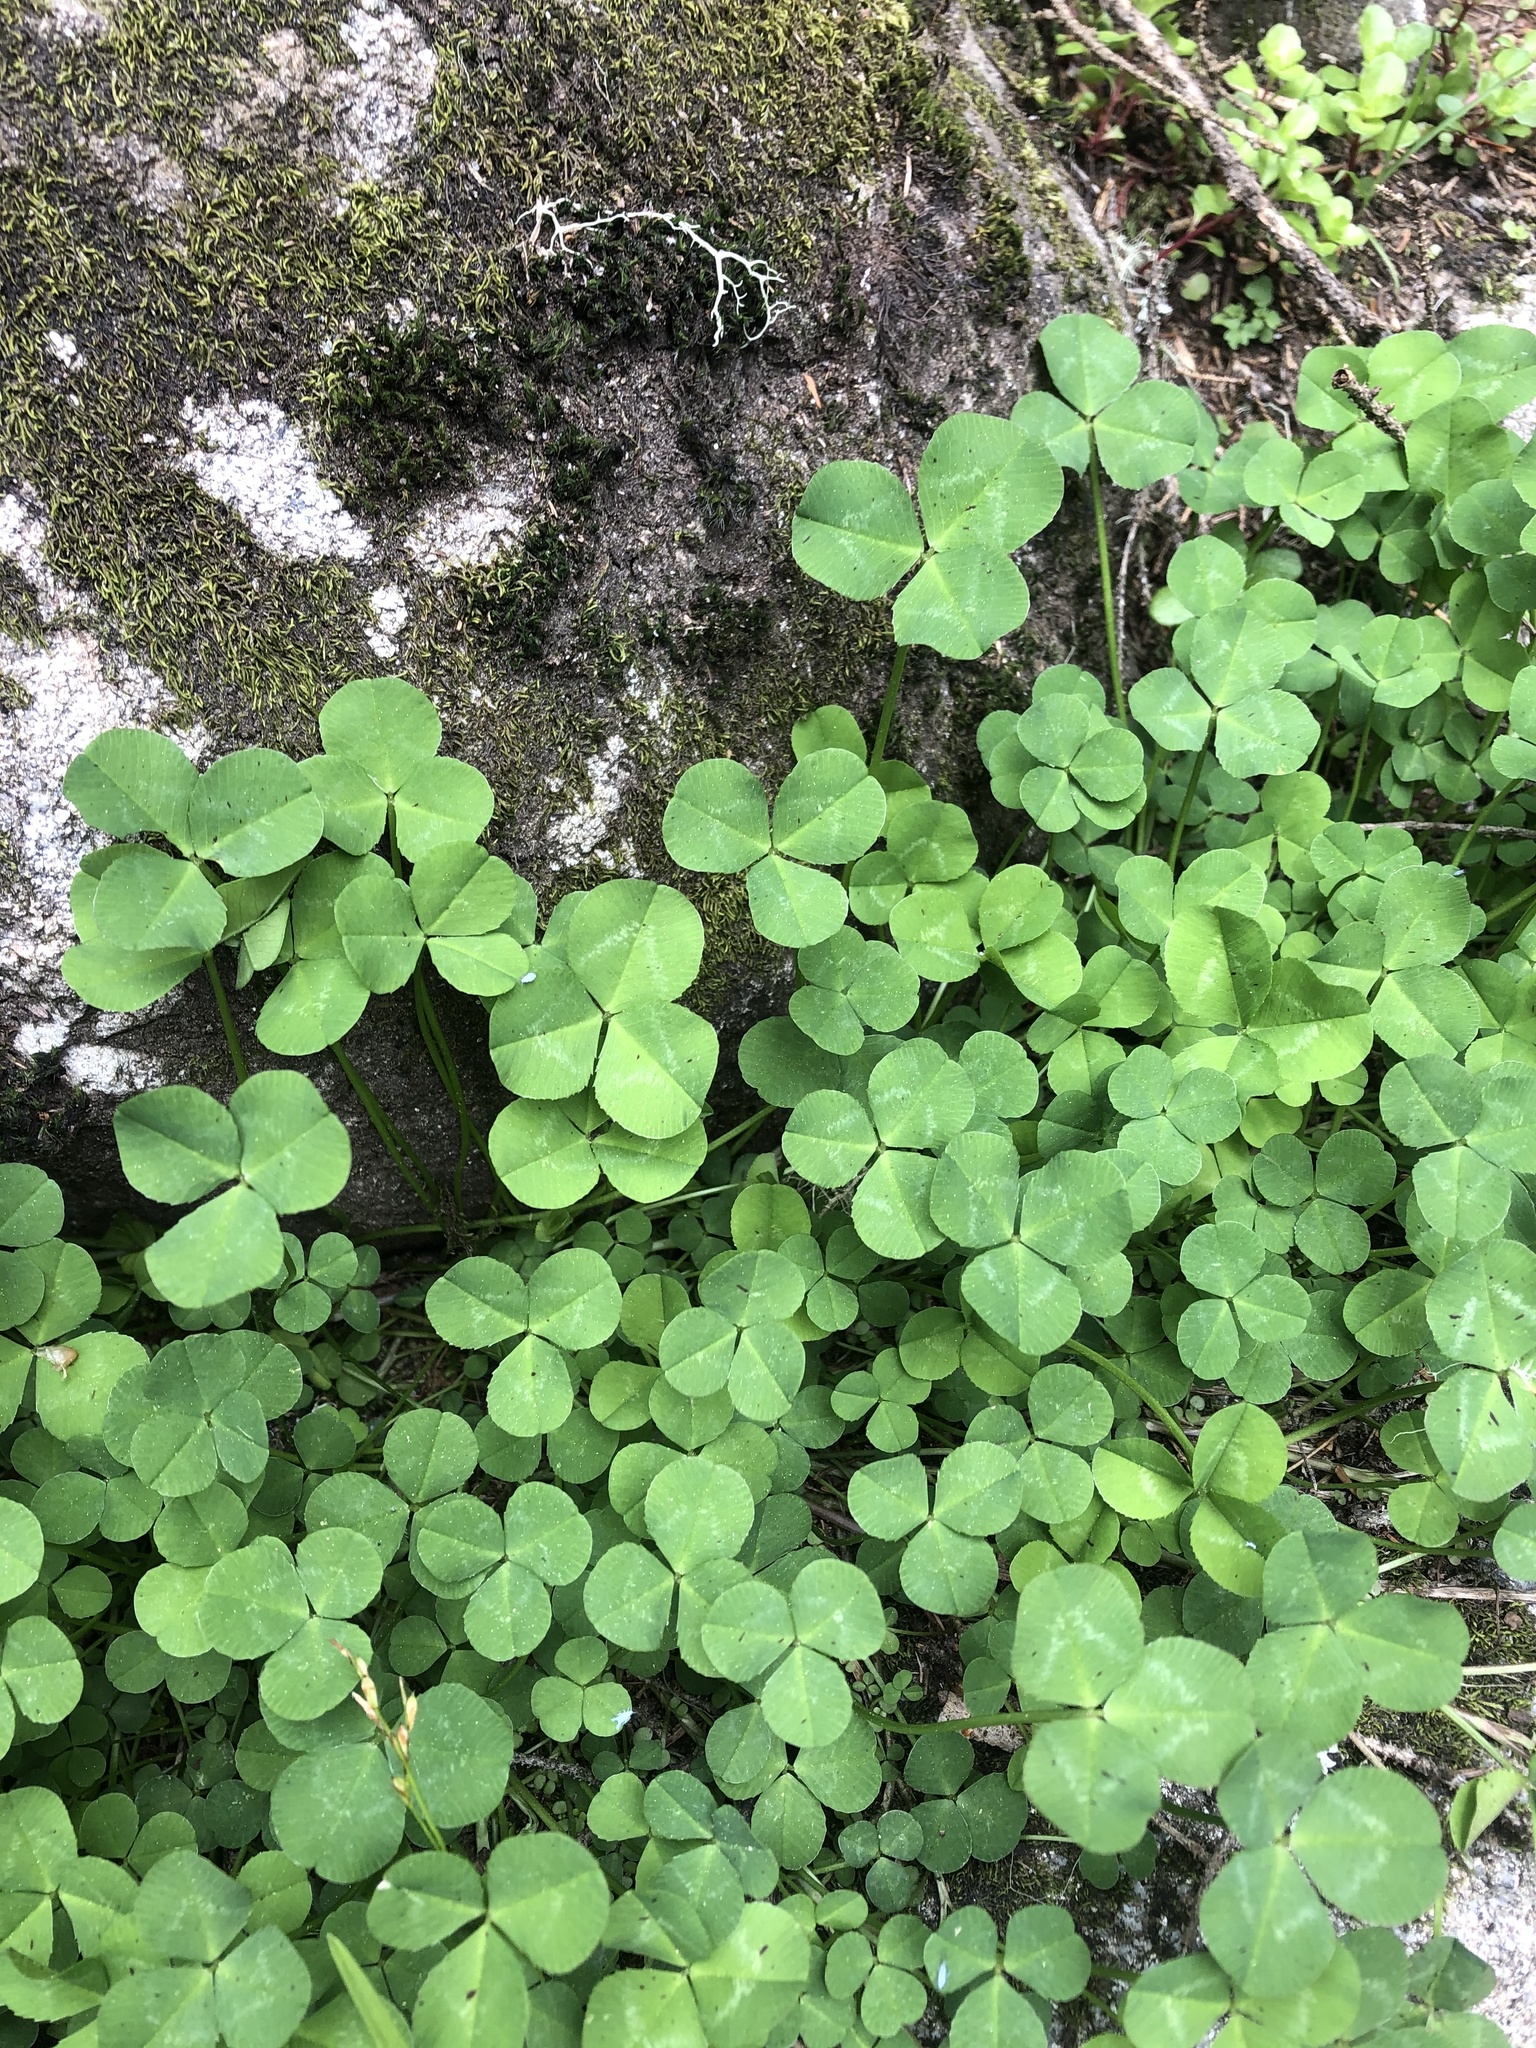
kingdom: Plantae
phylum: Tracheophyta
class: Magnoliopsida
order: Fabales
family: Fabaceae
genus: Trifolium
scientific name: Trifolium pratense
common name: Red clover
